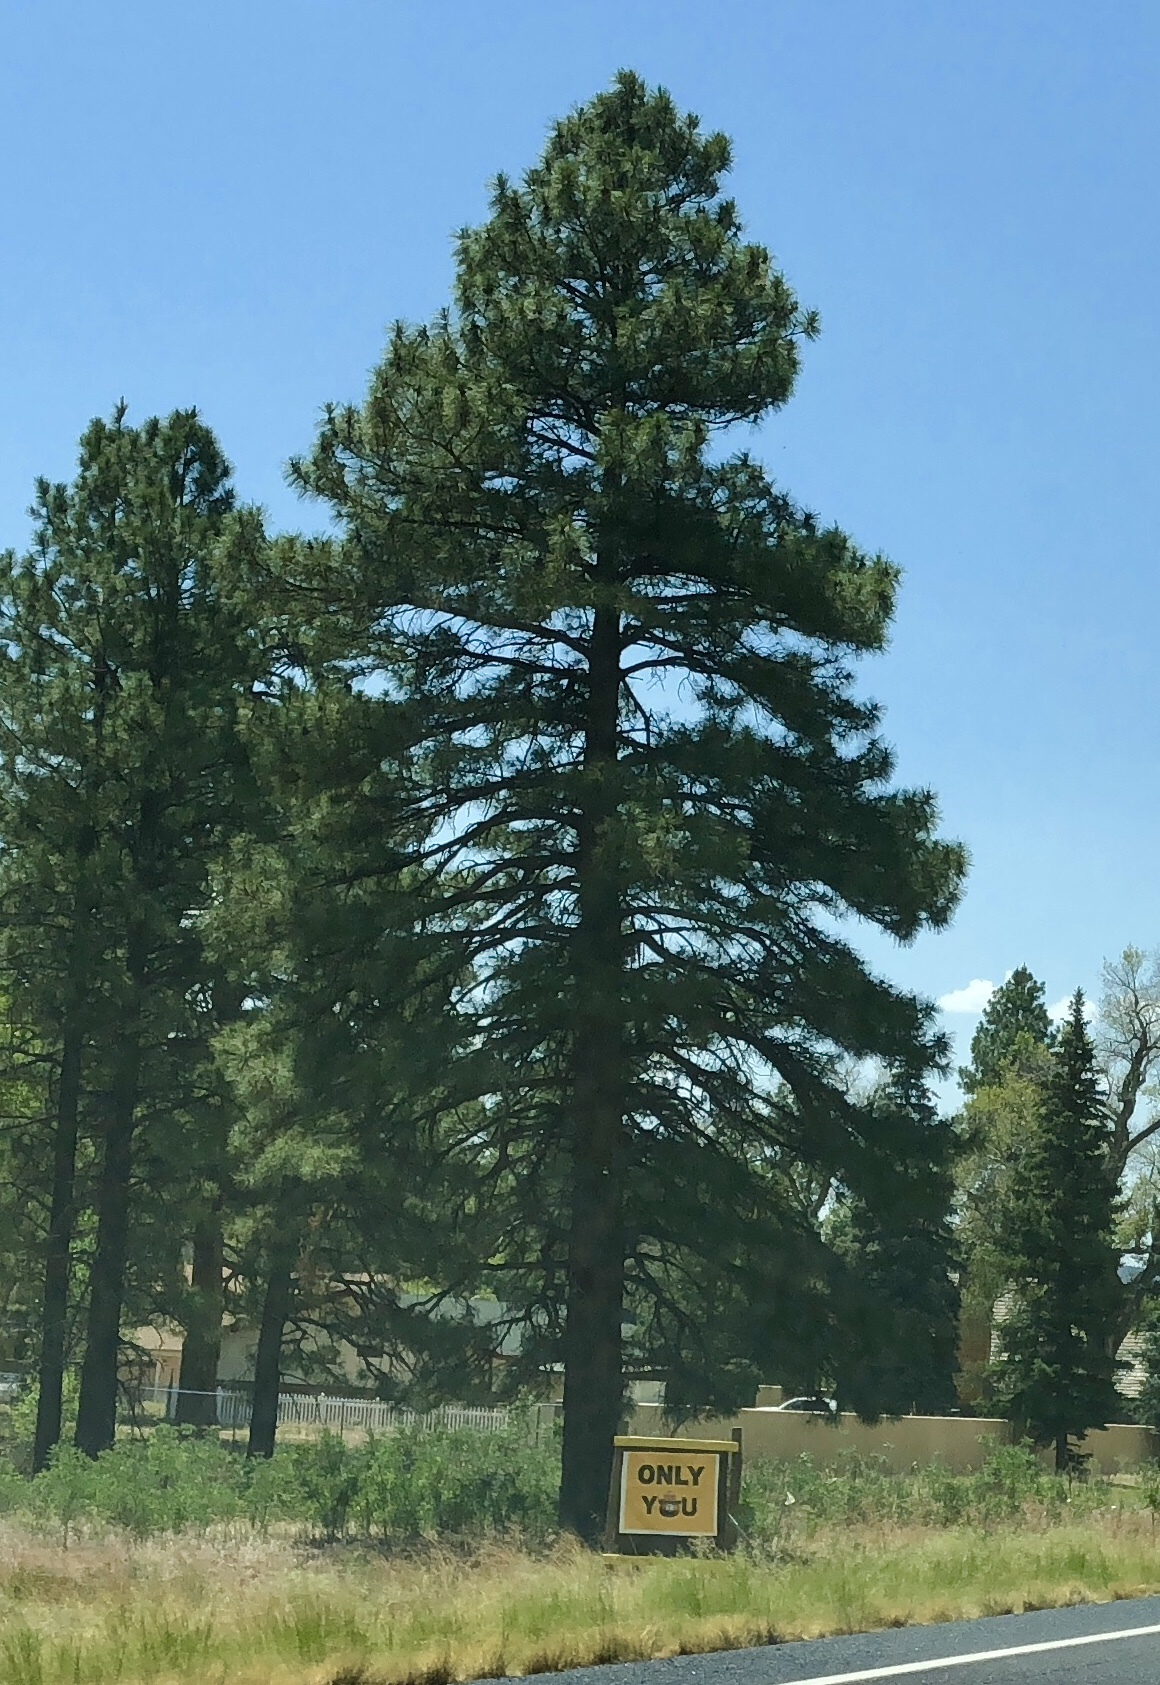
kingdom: Plantae
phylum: Tracheophyta
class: Pinopsida
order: Pinales
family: Pinaceae
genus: Pinus
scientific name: Pinus ponderosa
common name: Western yellow-pine
